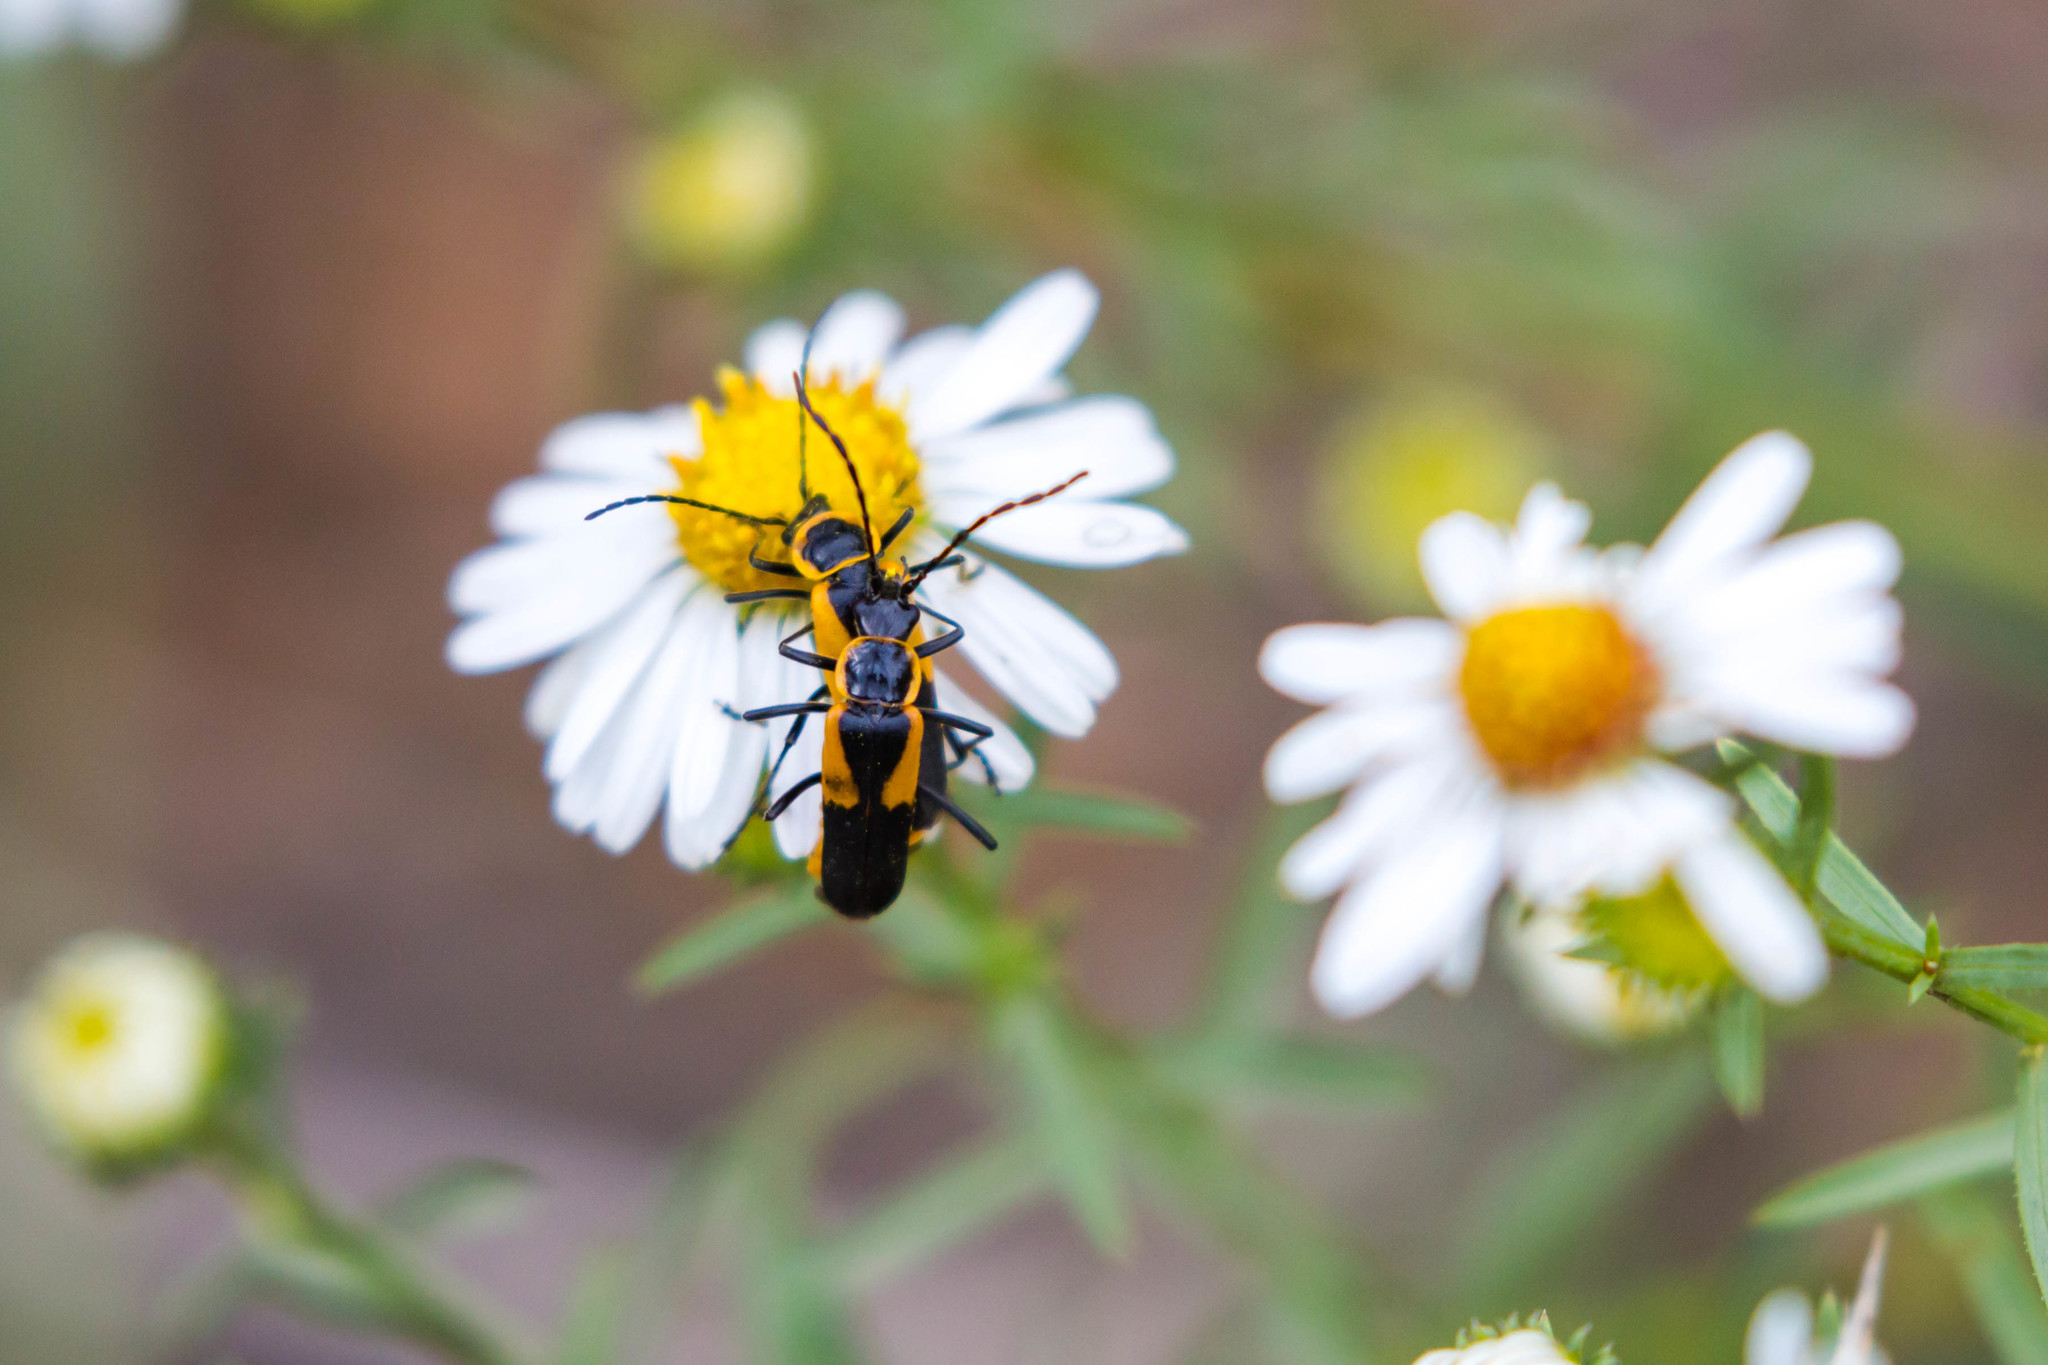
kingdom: Animalia
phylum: Arthropoda
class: Insecta
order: Coleoptera
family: Cantharidae
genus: Chauliognathus
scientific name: Chauliognathus deceptus
